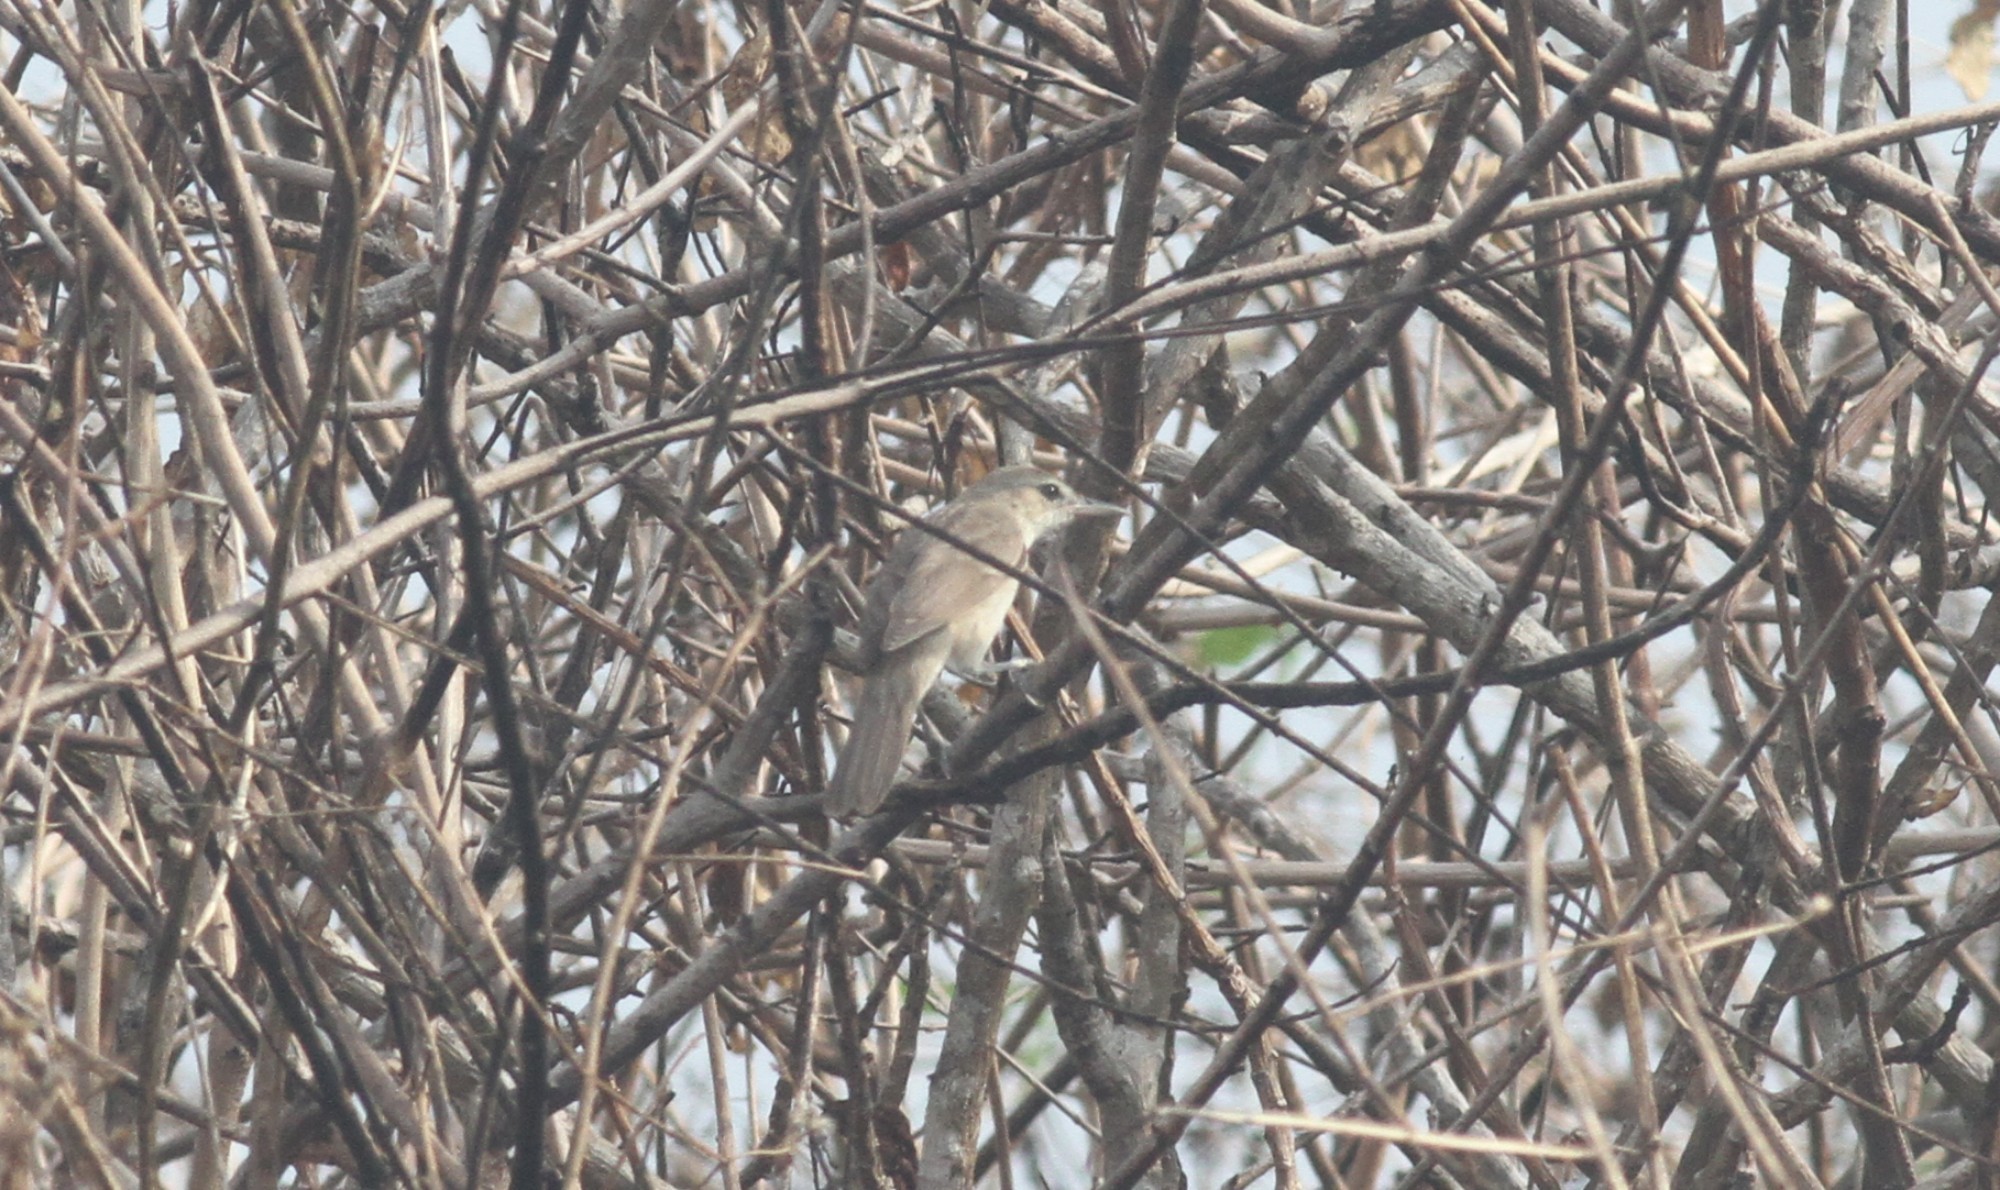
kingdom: Animalia
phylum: Chordata
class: Aves
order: Passeriformes
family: Acrocephalidae
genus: Acrocephalus
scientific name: Acrocephalus stentoreus
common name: Clamorous reed warbler
